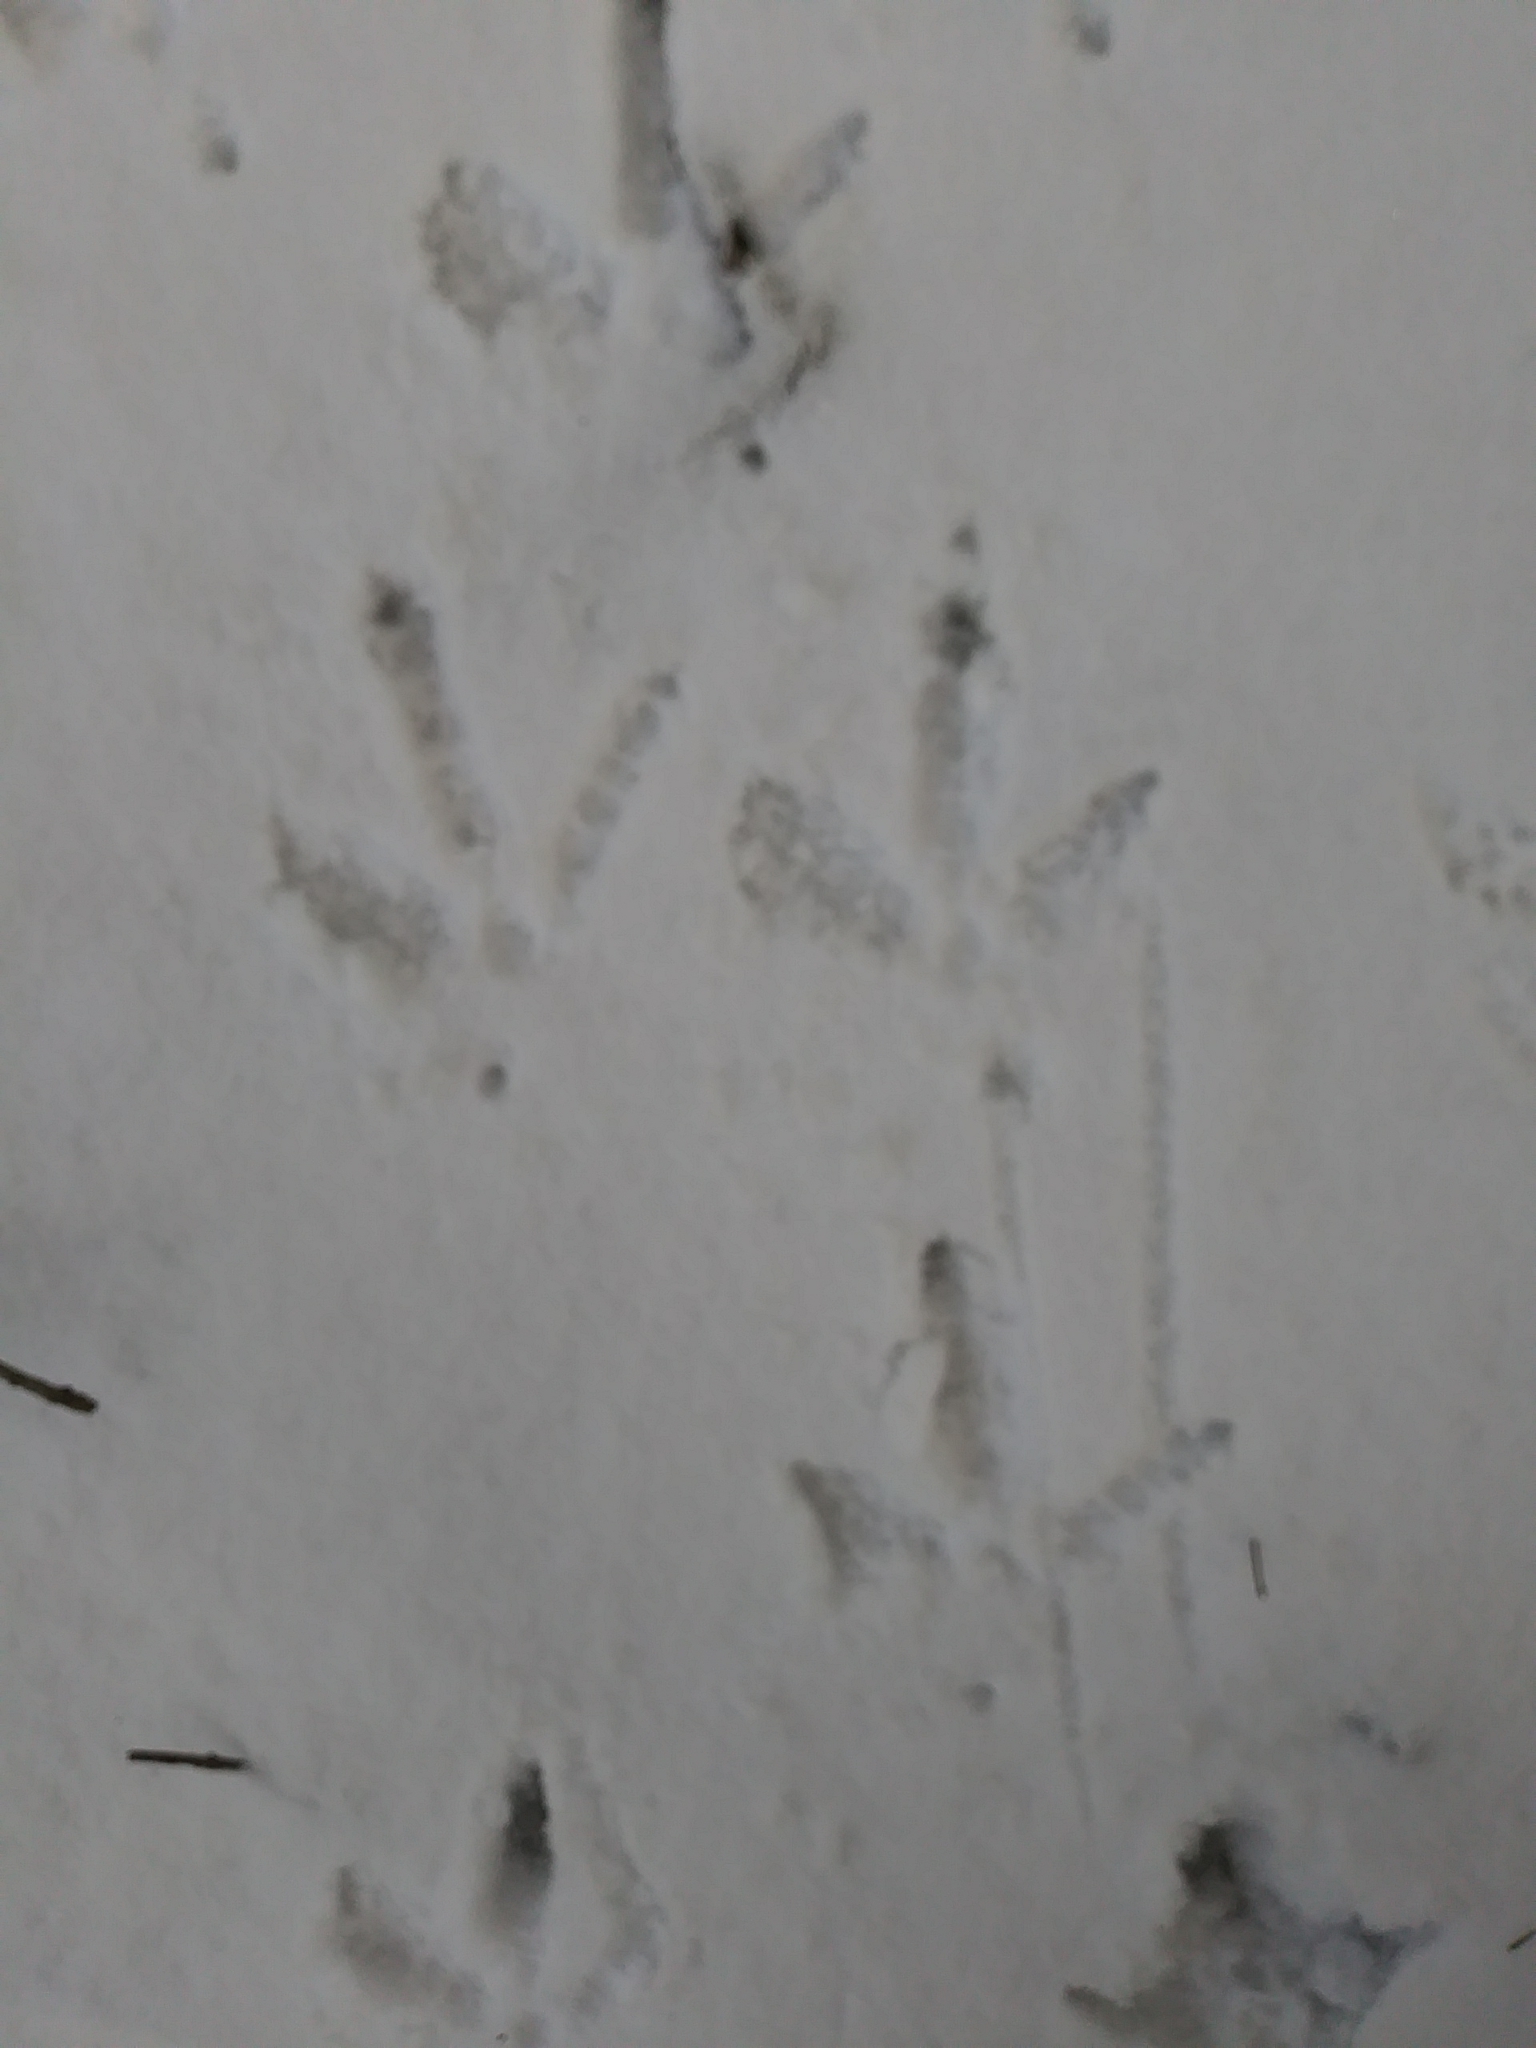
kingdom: Animalia
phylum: Chordata
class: Aves
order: Galliformes
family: Phasianidae
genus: Meleagris
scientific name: Meleagris gallopavo
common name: Wild turkey
